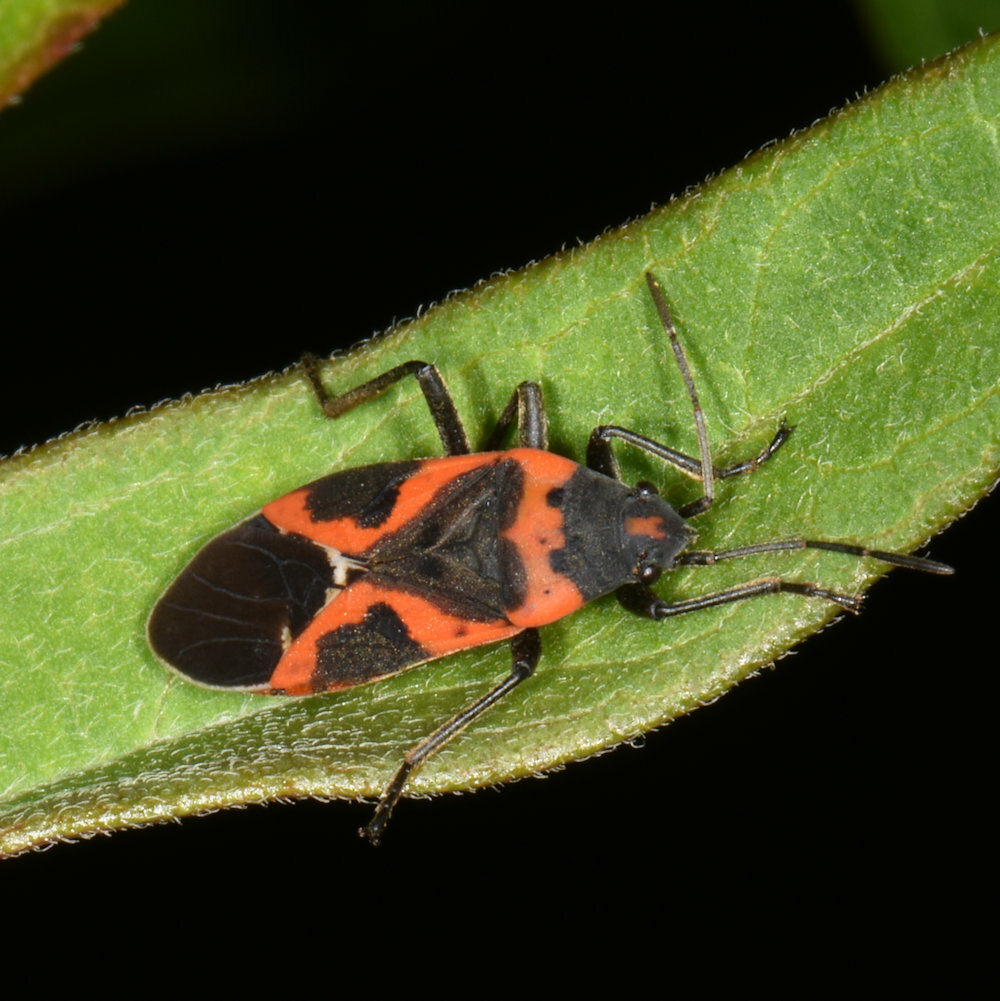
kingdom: Animalia
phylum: Arthropoda
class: Insecta
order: Hemiptera
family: Lygaeidae
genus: Lygaeus
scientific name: Lygaeus kalmii
